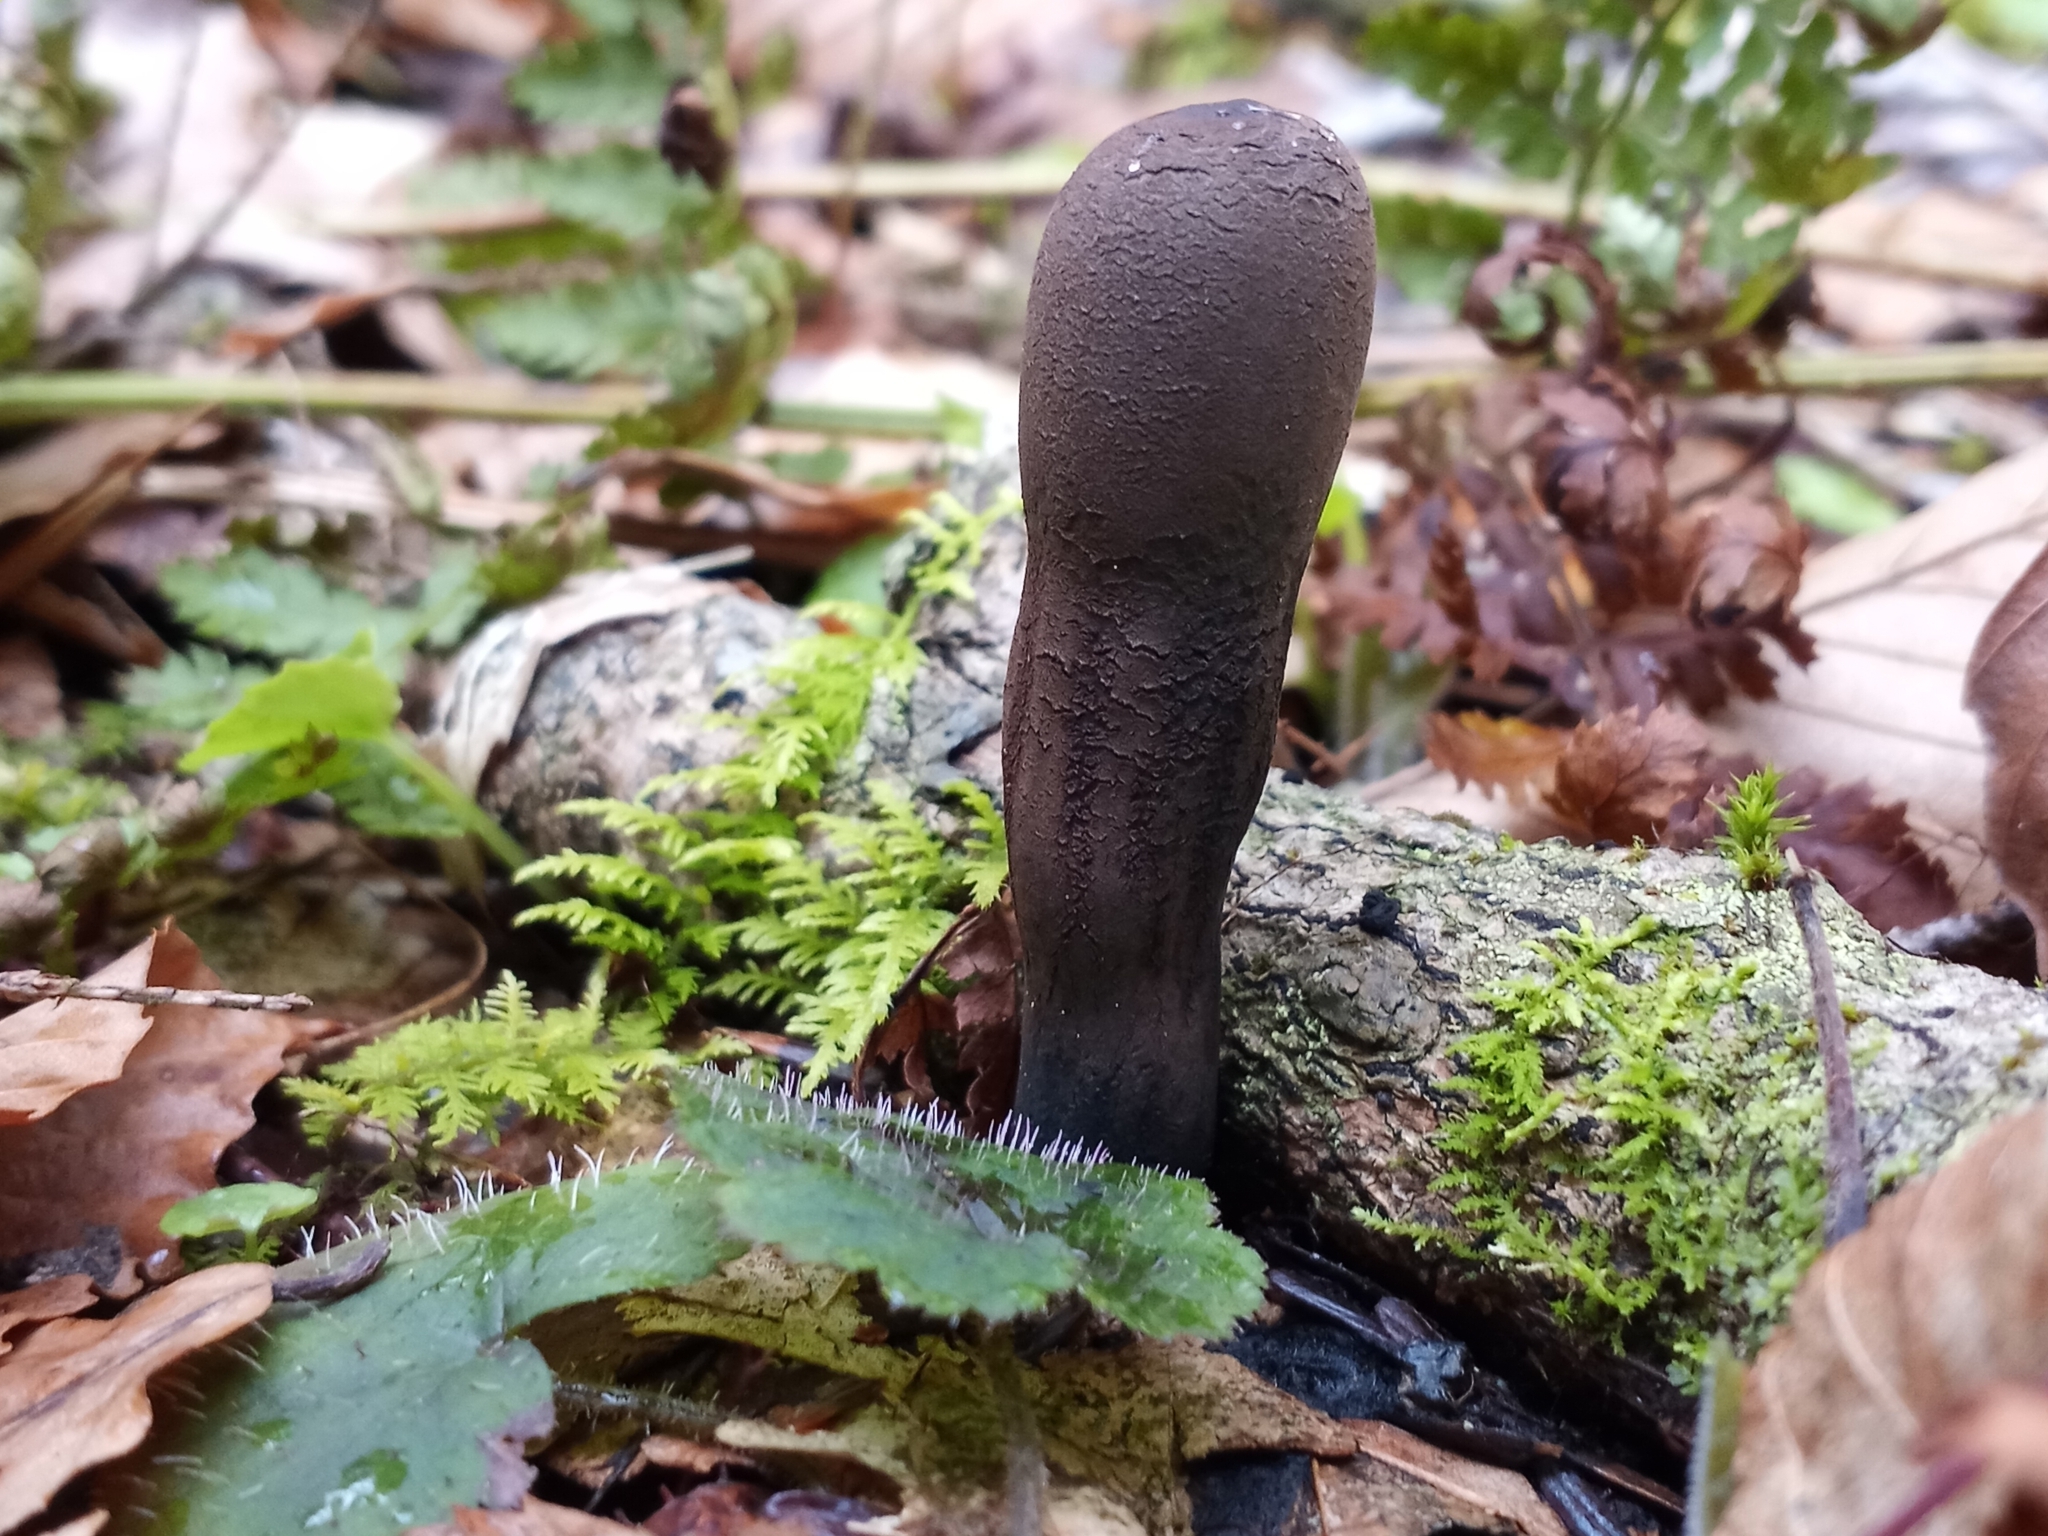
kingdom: Fungi
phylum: Ascomycota
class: Pezizomycetes
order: Pezizales
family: Sarcosomataceae
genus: Urnula
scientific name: Urnula craterium
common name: Devil's urn
